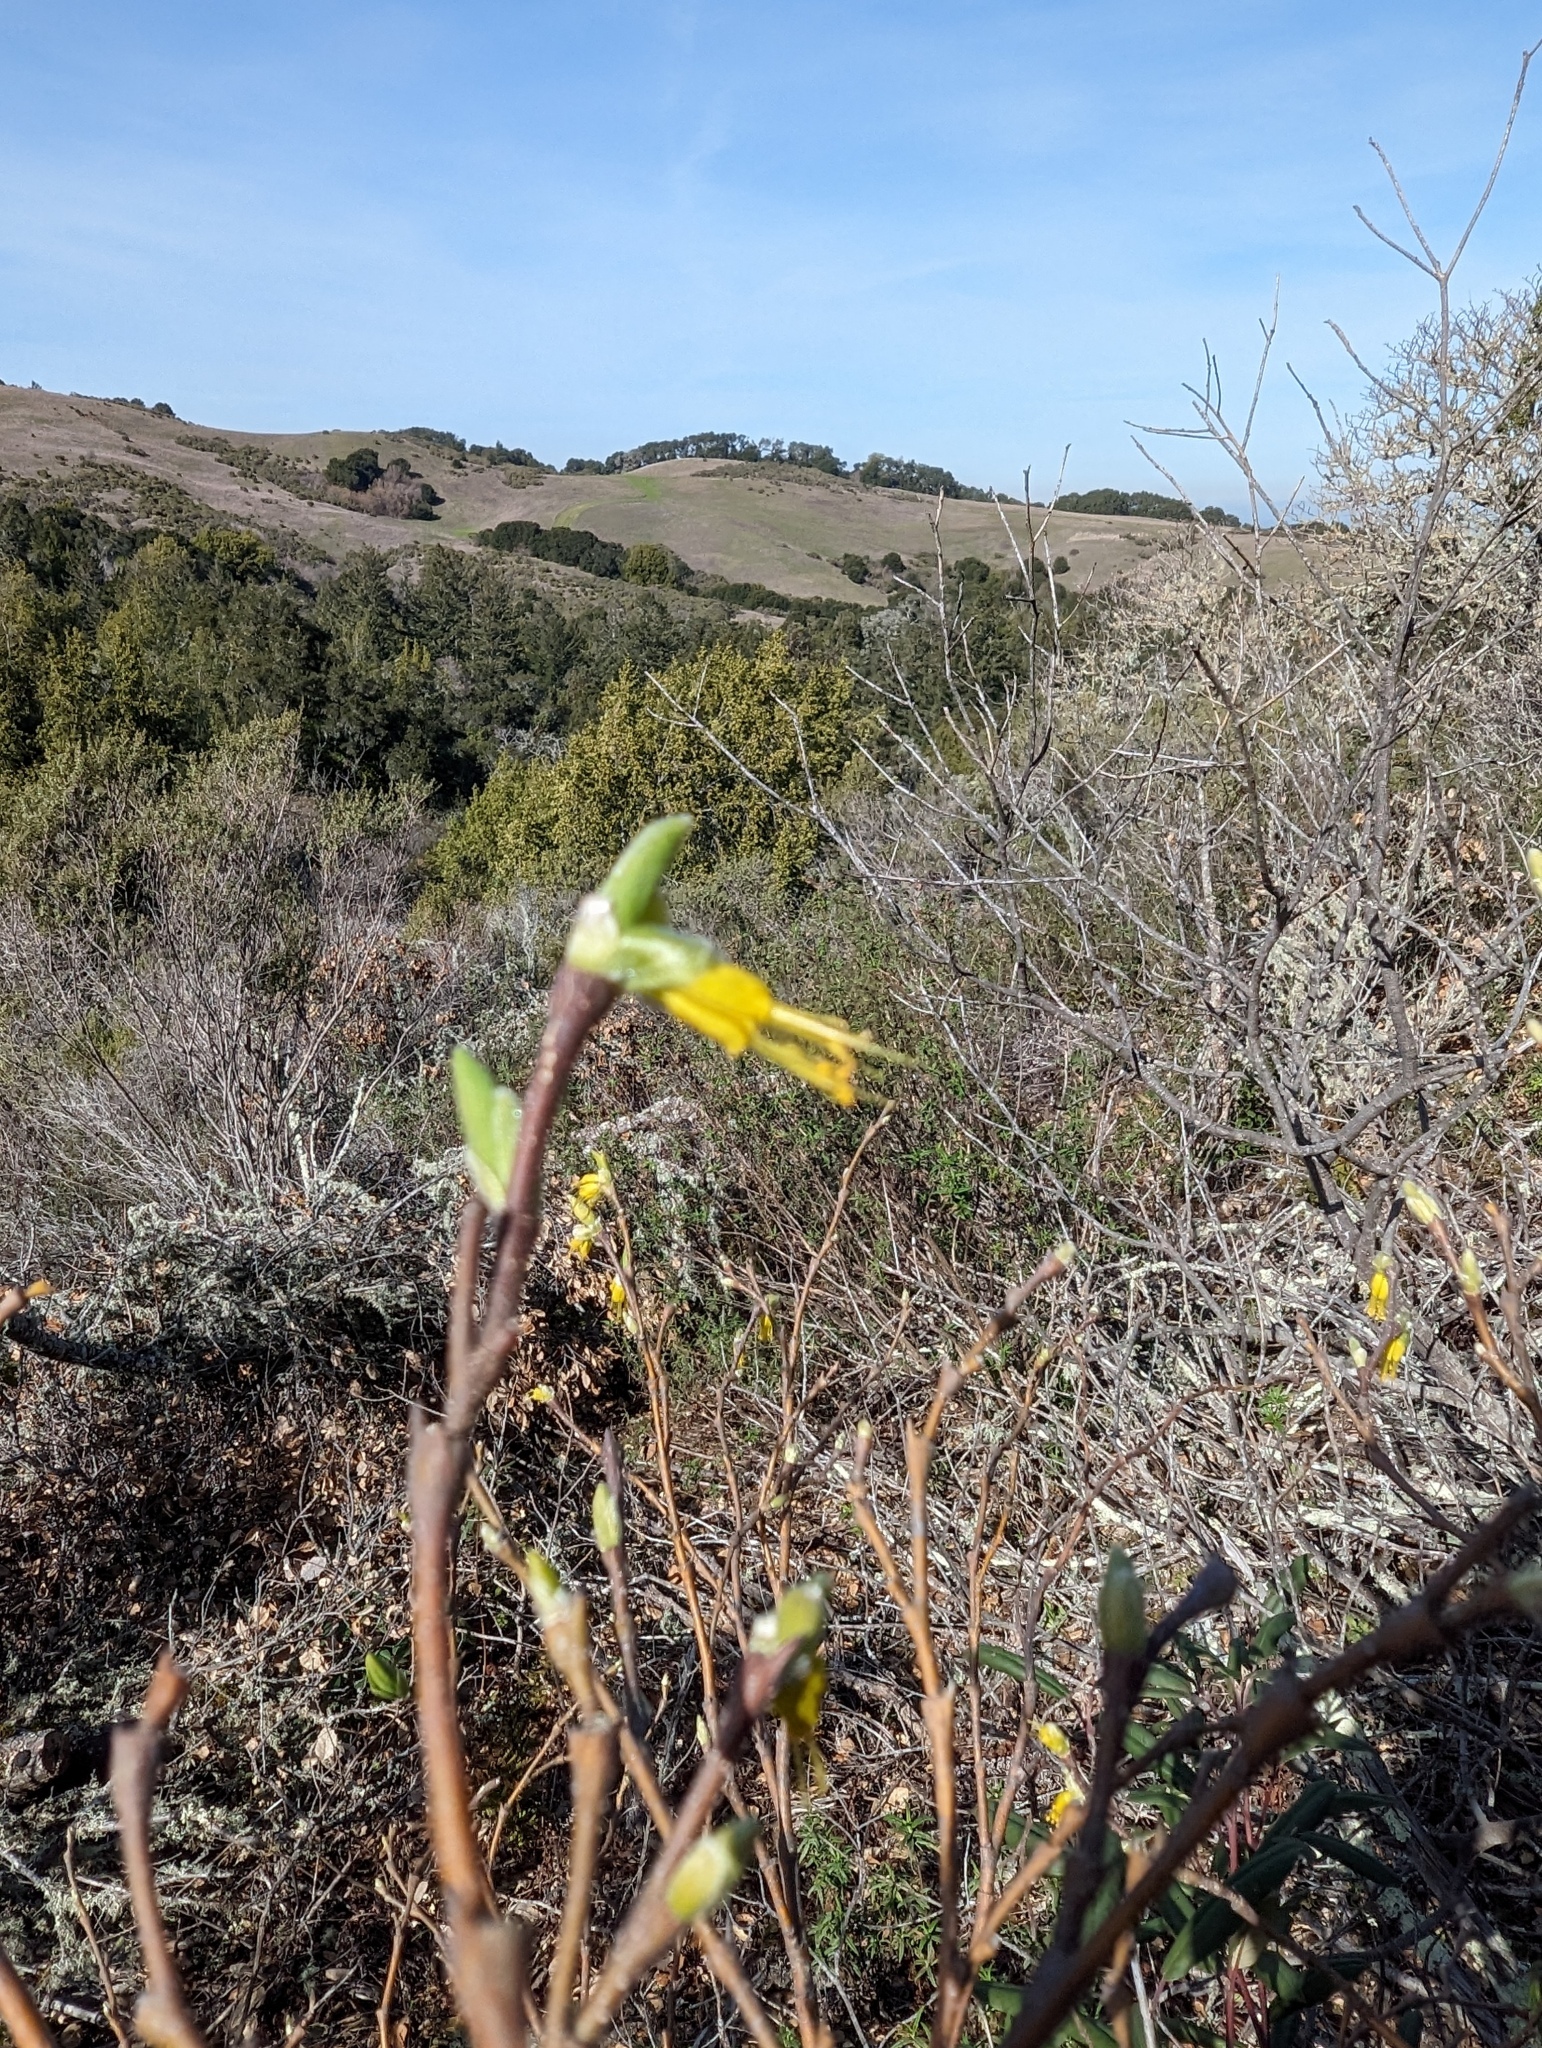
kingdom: Plantae
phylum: Tracheophyta
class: Magnoliopsida
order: Malvales
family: Thymelaeaceae
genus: Dirca
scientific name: Dirca occidentalis
